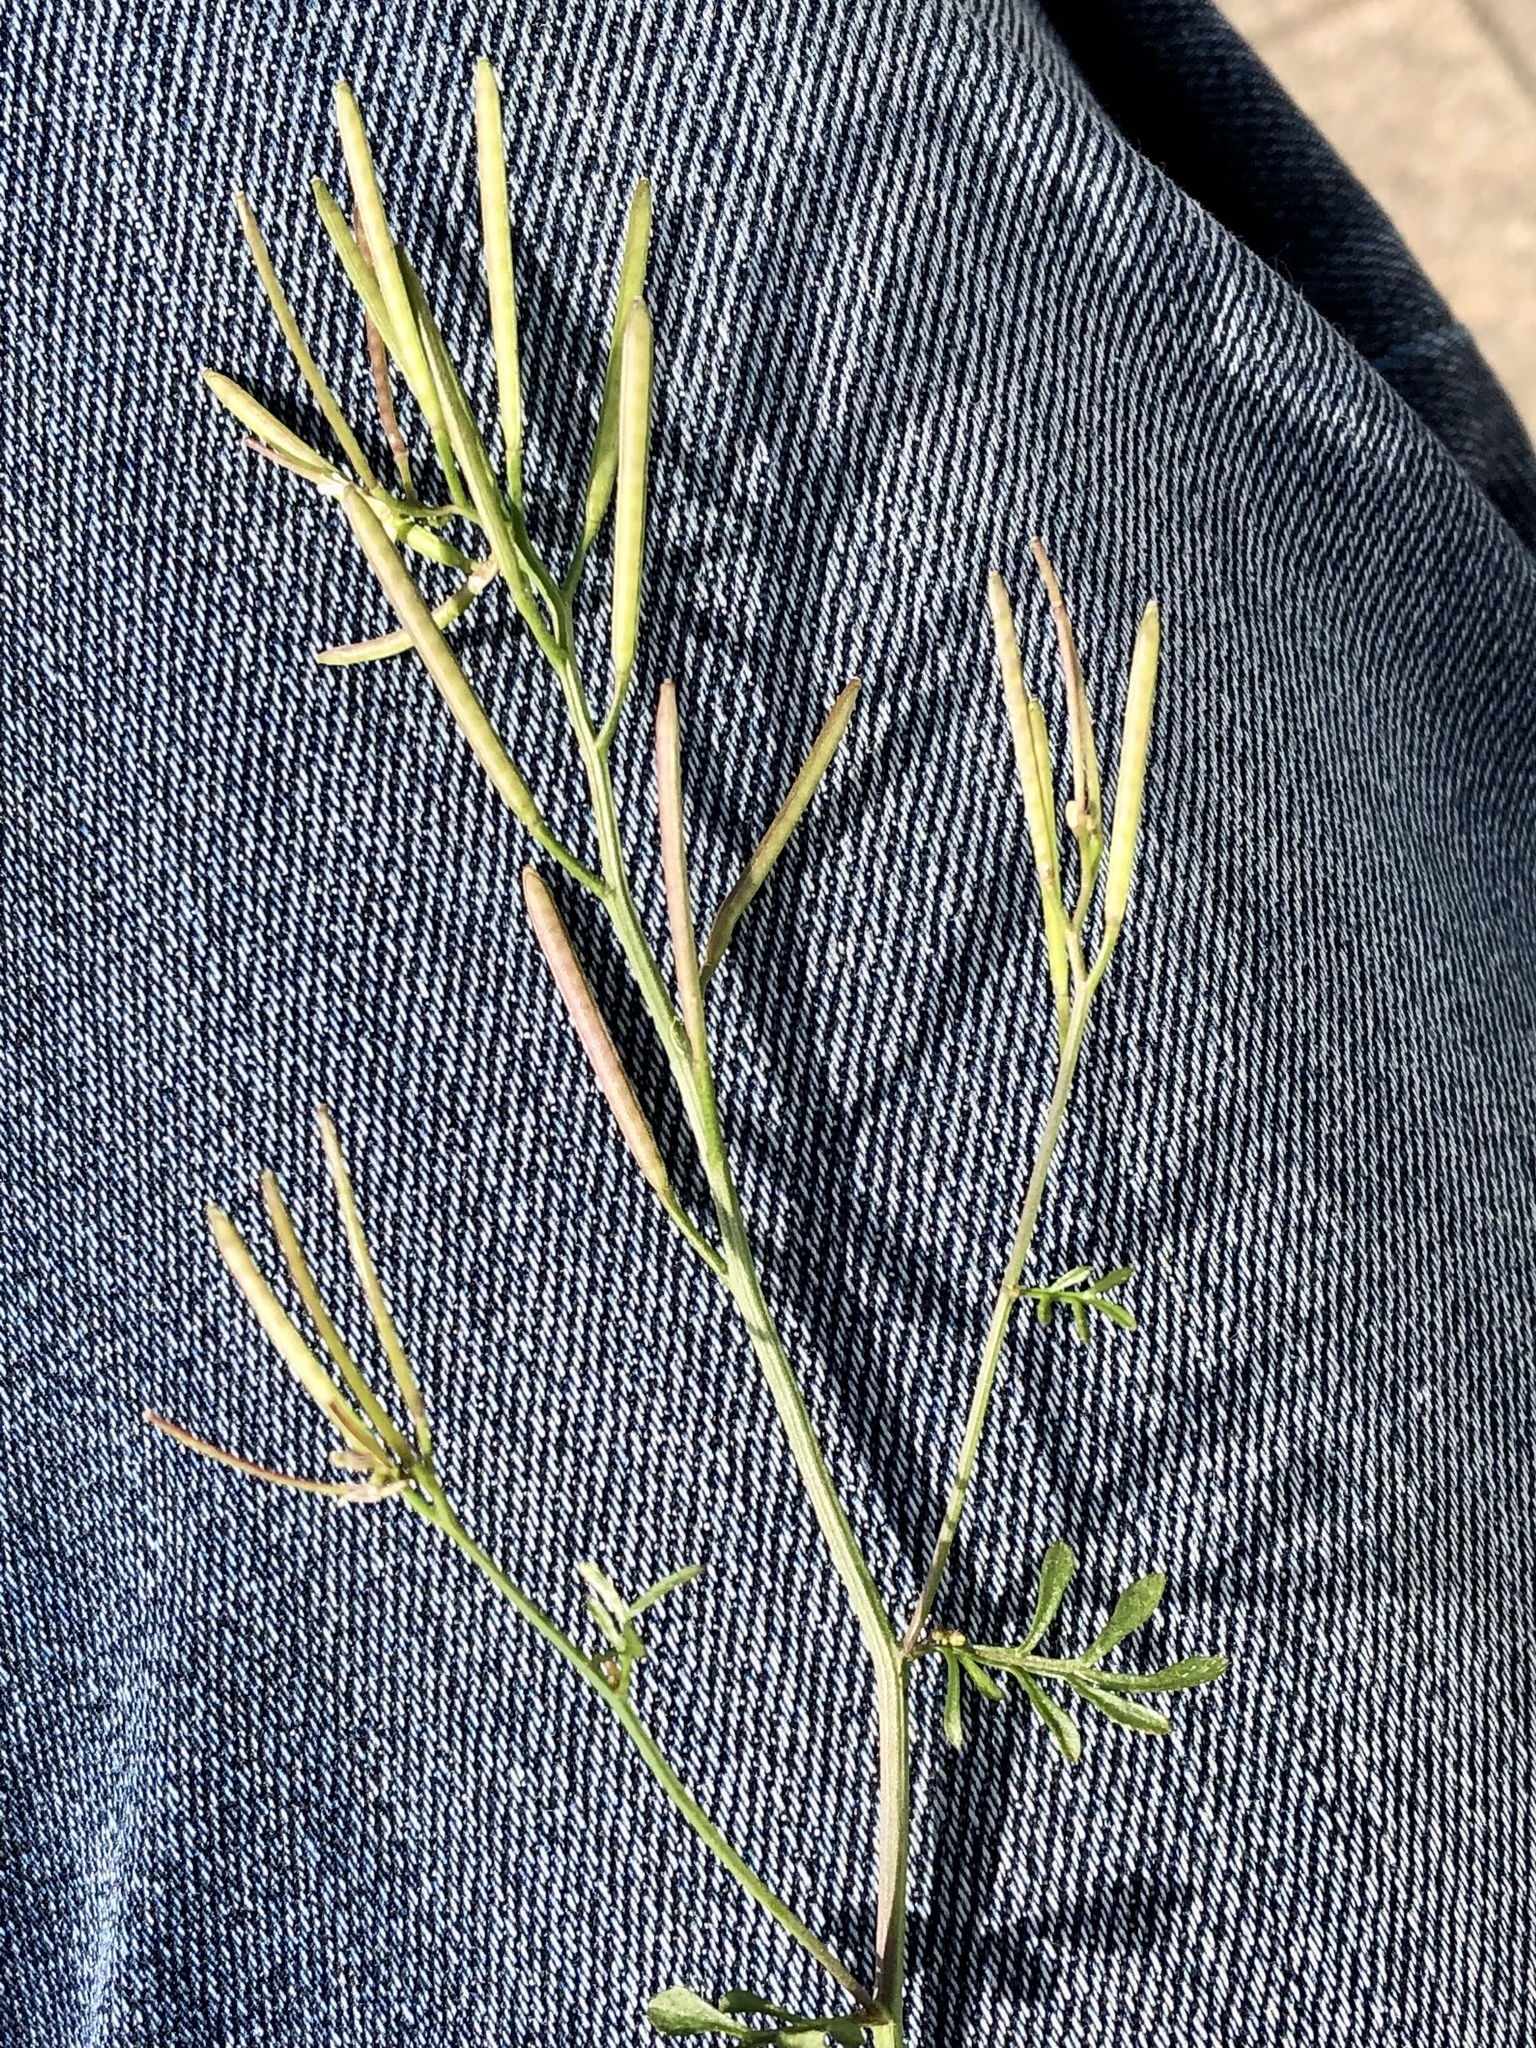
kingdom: Plantae
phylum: Tracheophyta
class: Magnoliopsida
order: Brassicales
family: Brassicaceae
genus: Cardamine
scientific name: Cardamine hirsuta
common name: Hairy bittercress
